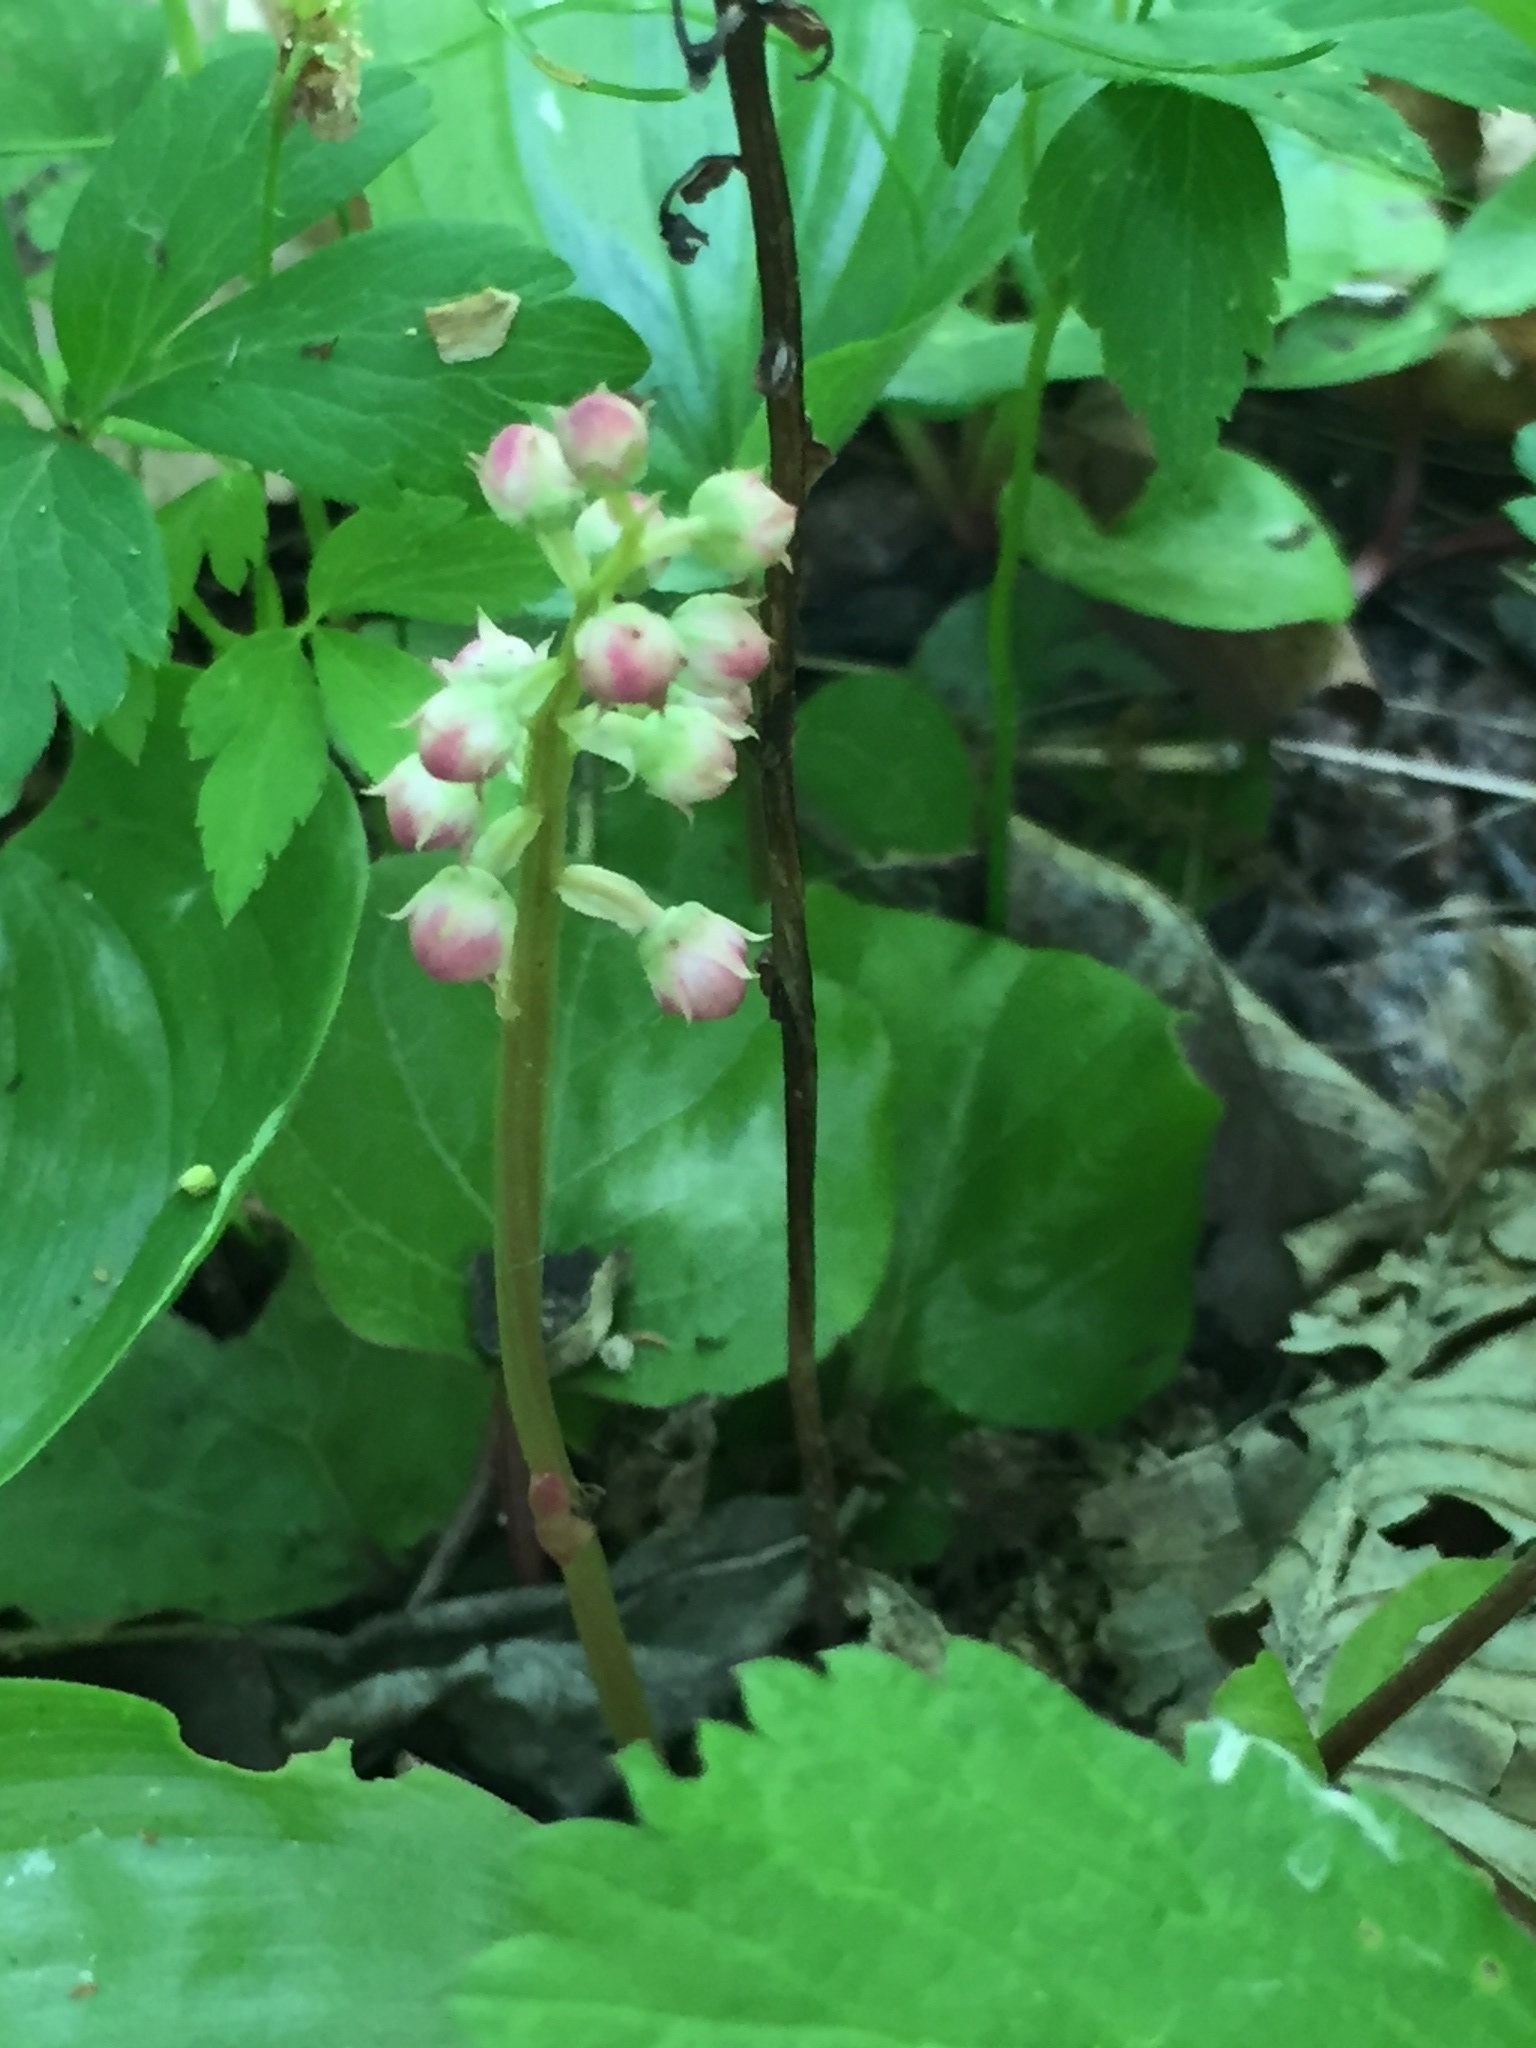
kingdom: Plantae
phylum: Tracheophyta
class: Magnoliopsida
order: Ericales
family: Ericaceae
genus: Pyrola
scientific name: Pyrola asarifolia
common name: Bog wintergreen
